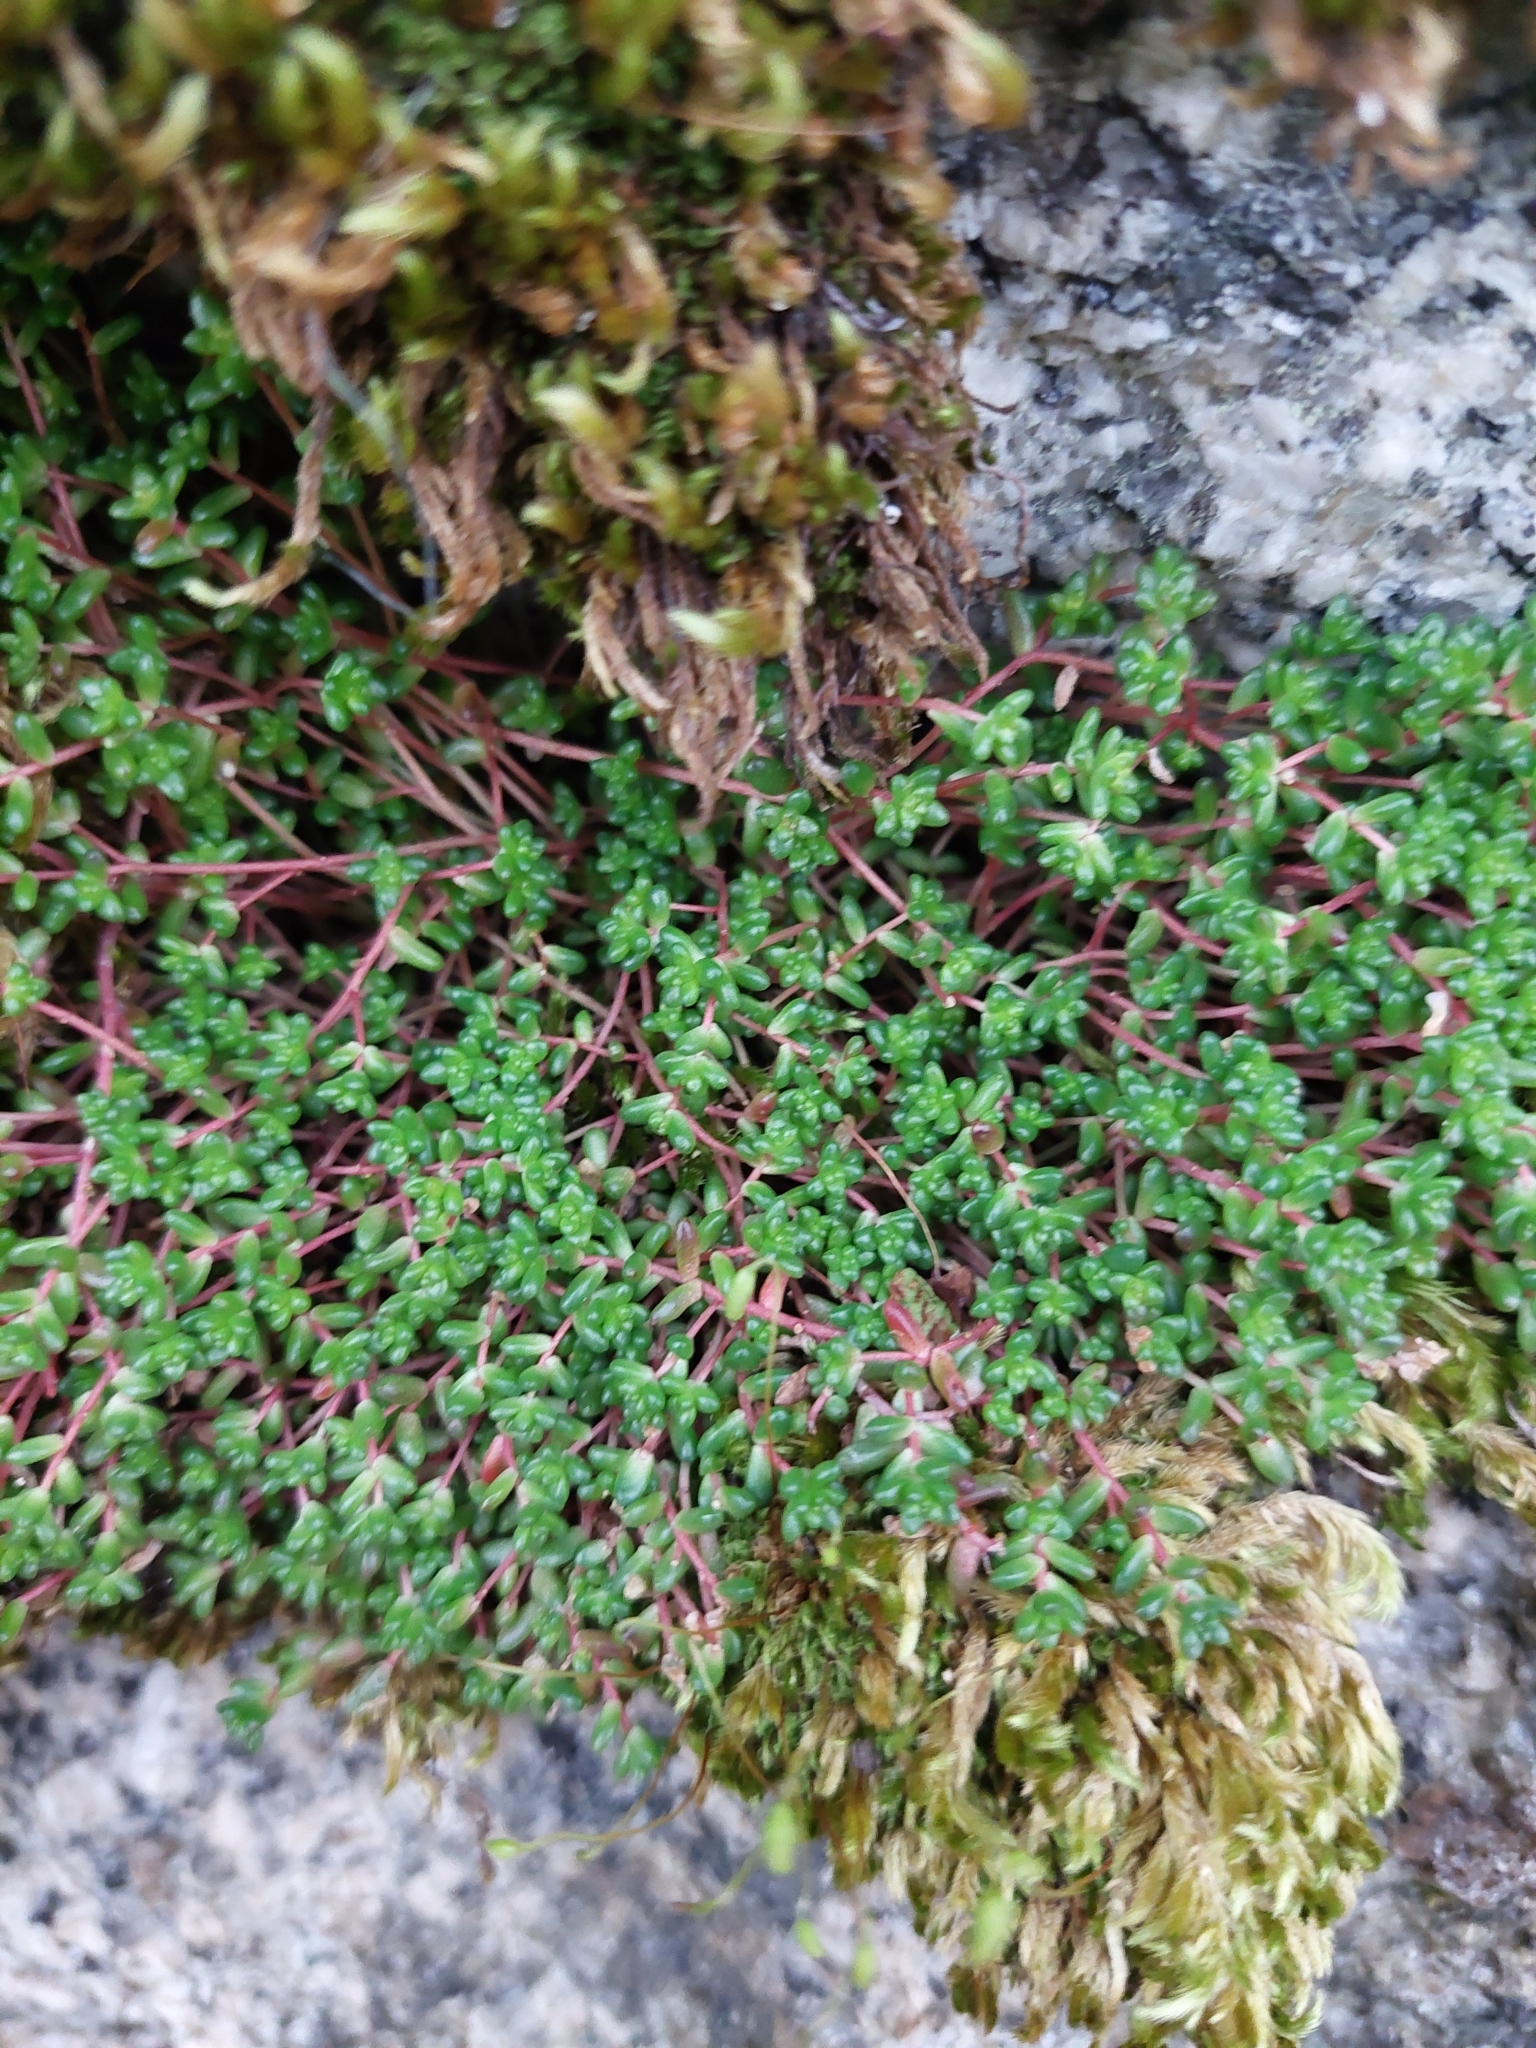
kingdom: Plantae
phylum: Tracheophyta
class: Magnoliopsida
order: Saxifragales
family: Crassulaceae
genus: Sedum
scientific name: Sedum anglicum
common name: English stonecrop
